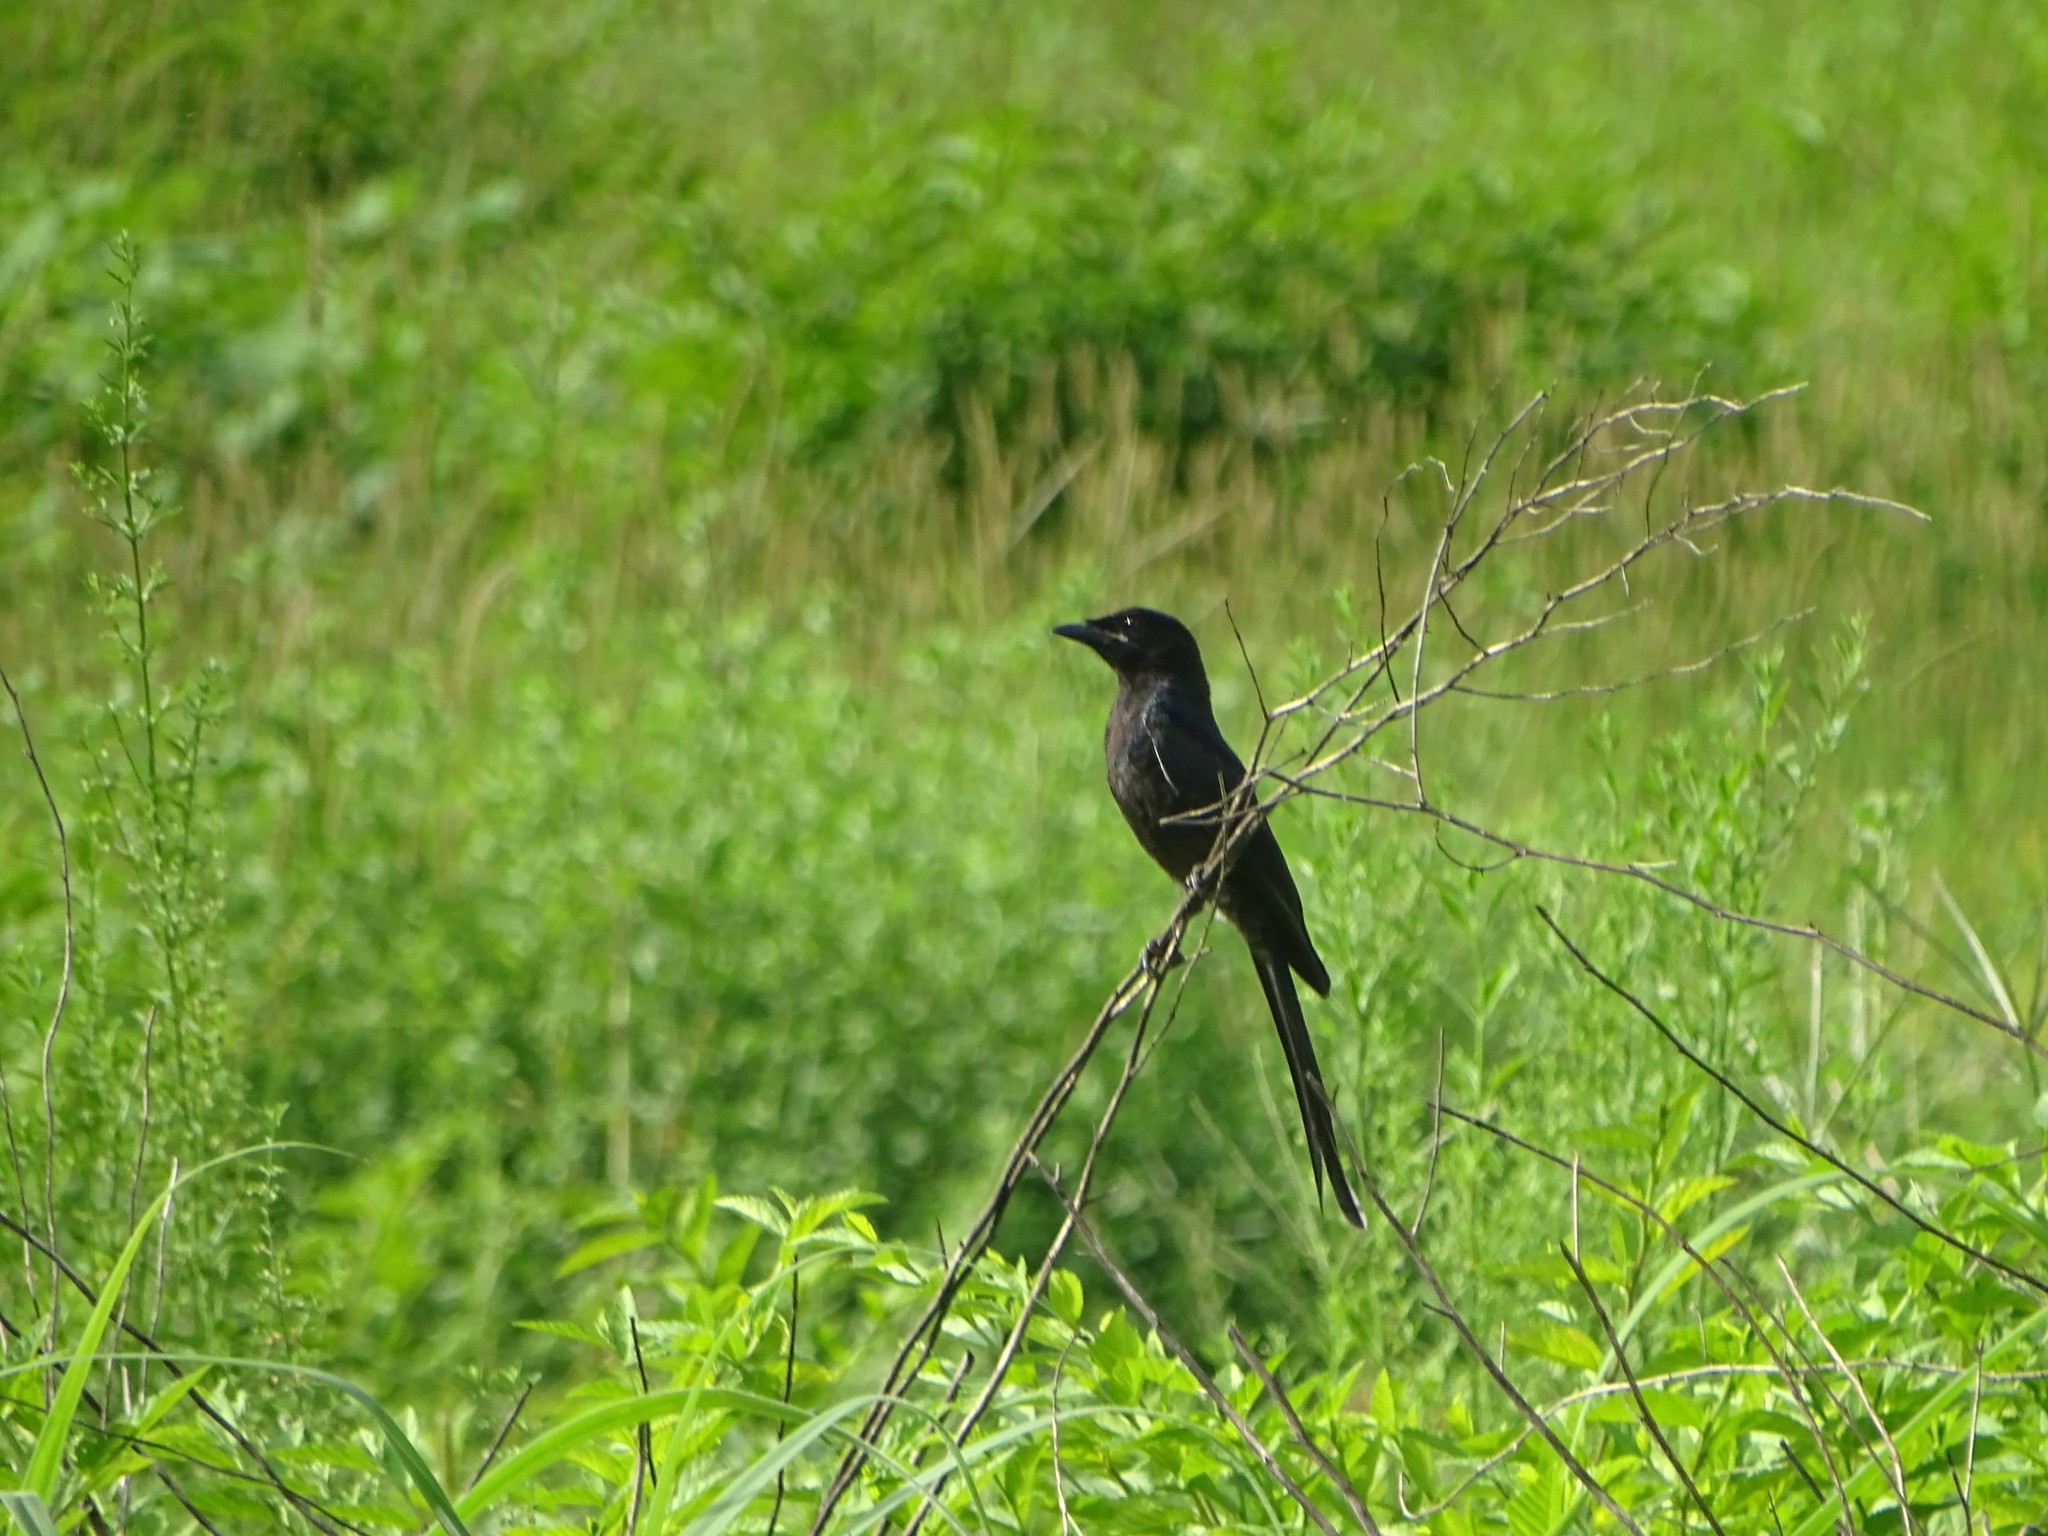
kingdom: Animalia
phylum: Chordata
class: Aves
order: Passeriformes
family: Dicruridae
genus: Dicrurus
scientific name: Dicrurus macrocercus
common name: Black drongo
